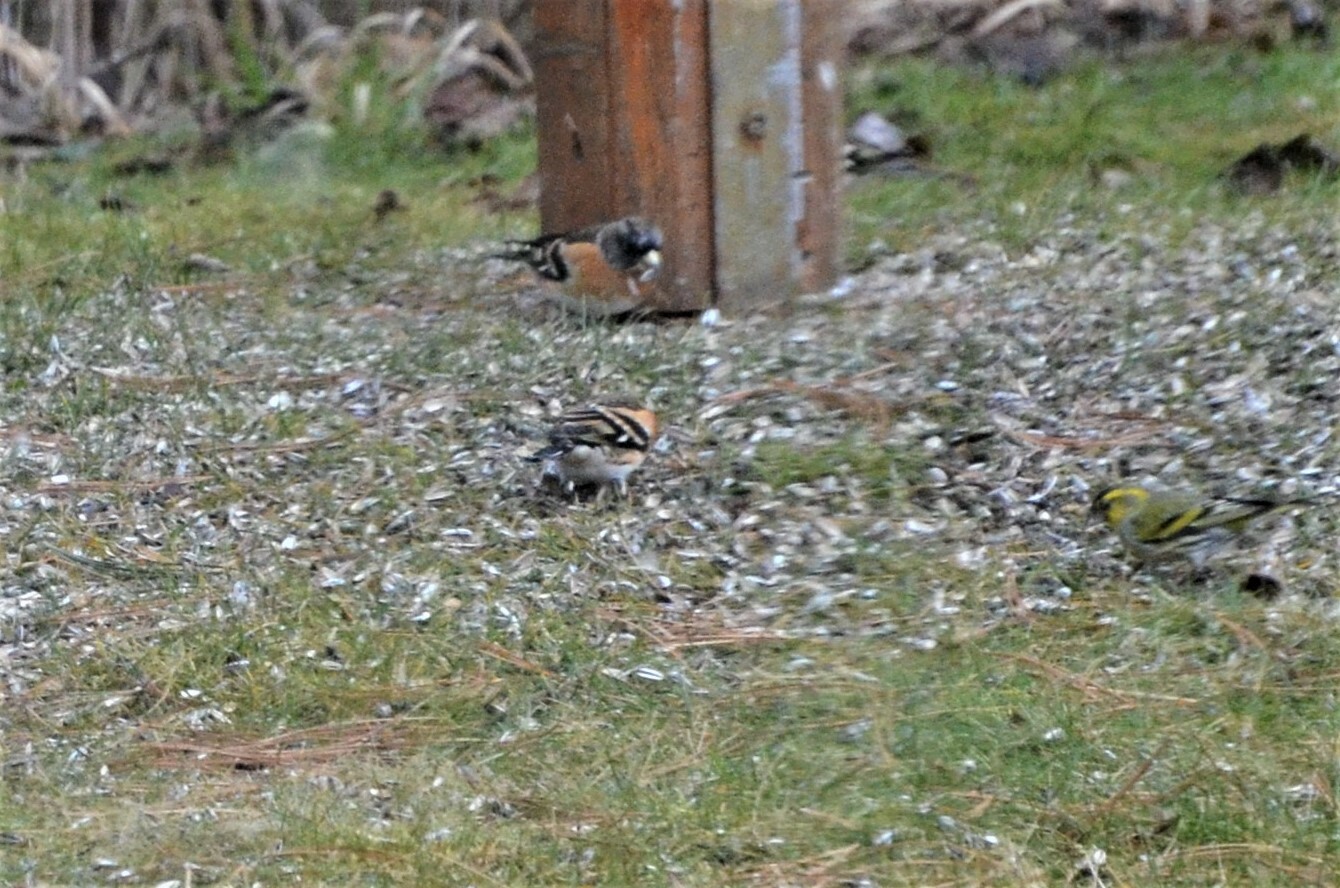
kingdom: Animalia
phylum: Chordata
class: Aves
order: Passeriformes
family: Fringillidae
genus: Spinus
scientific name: Spinus spinus
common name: Eurasian siskin
